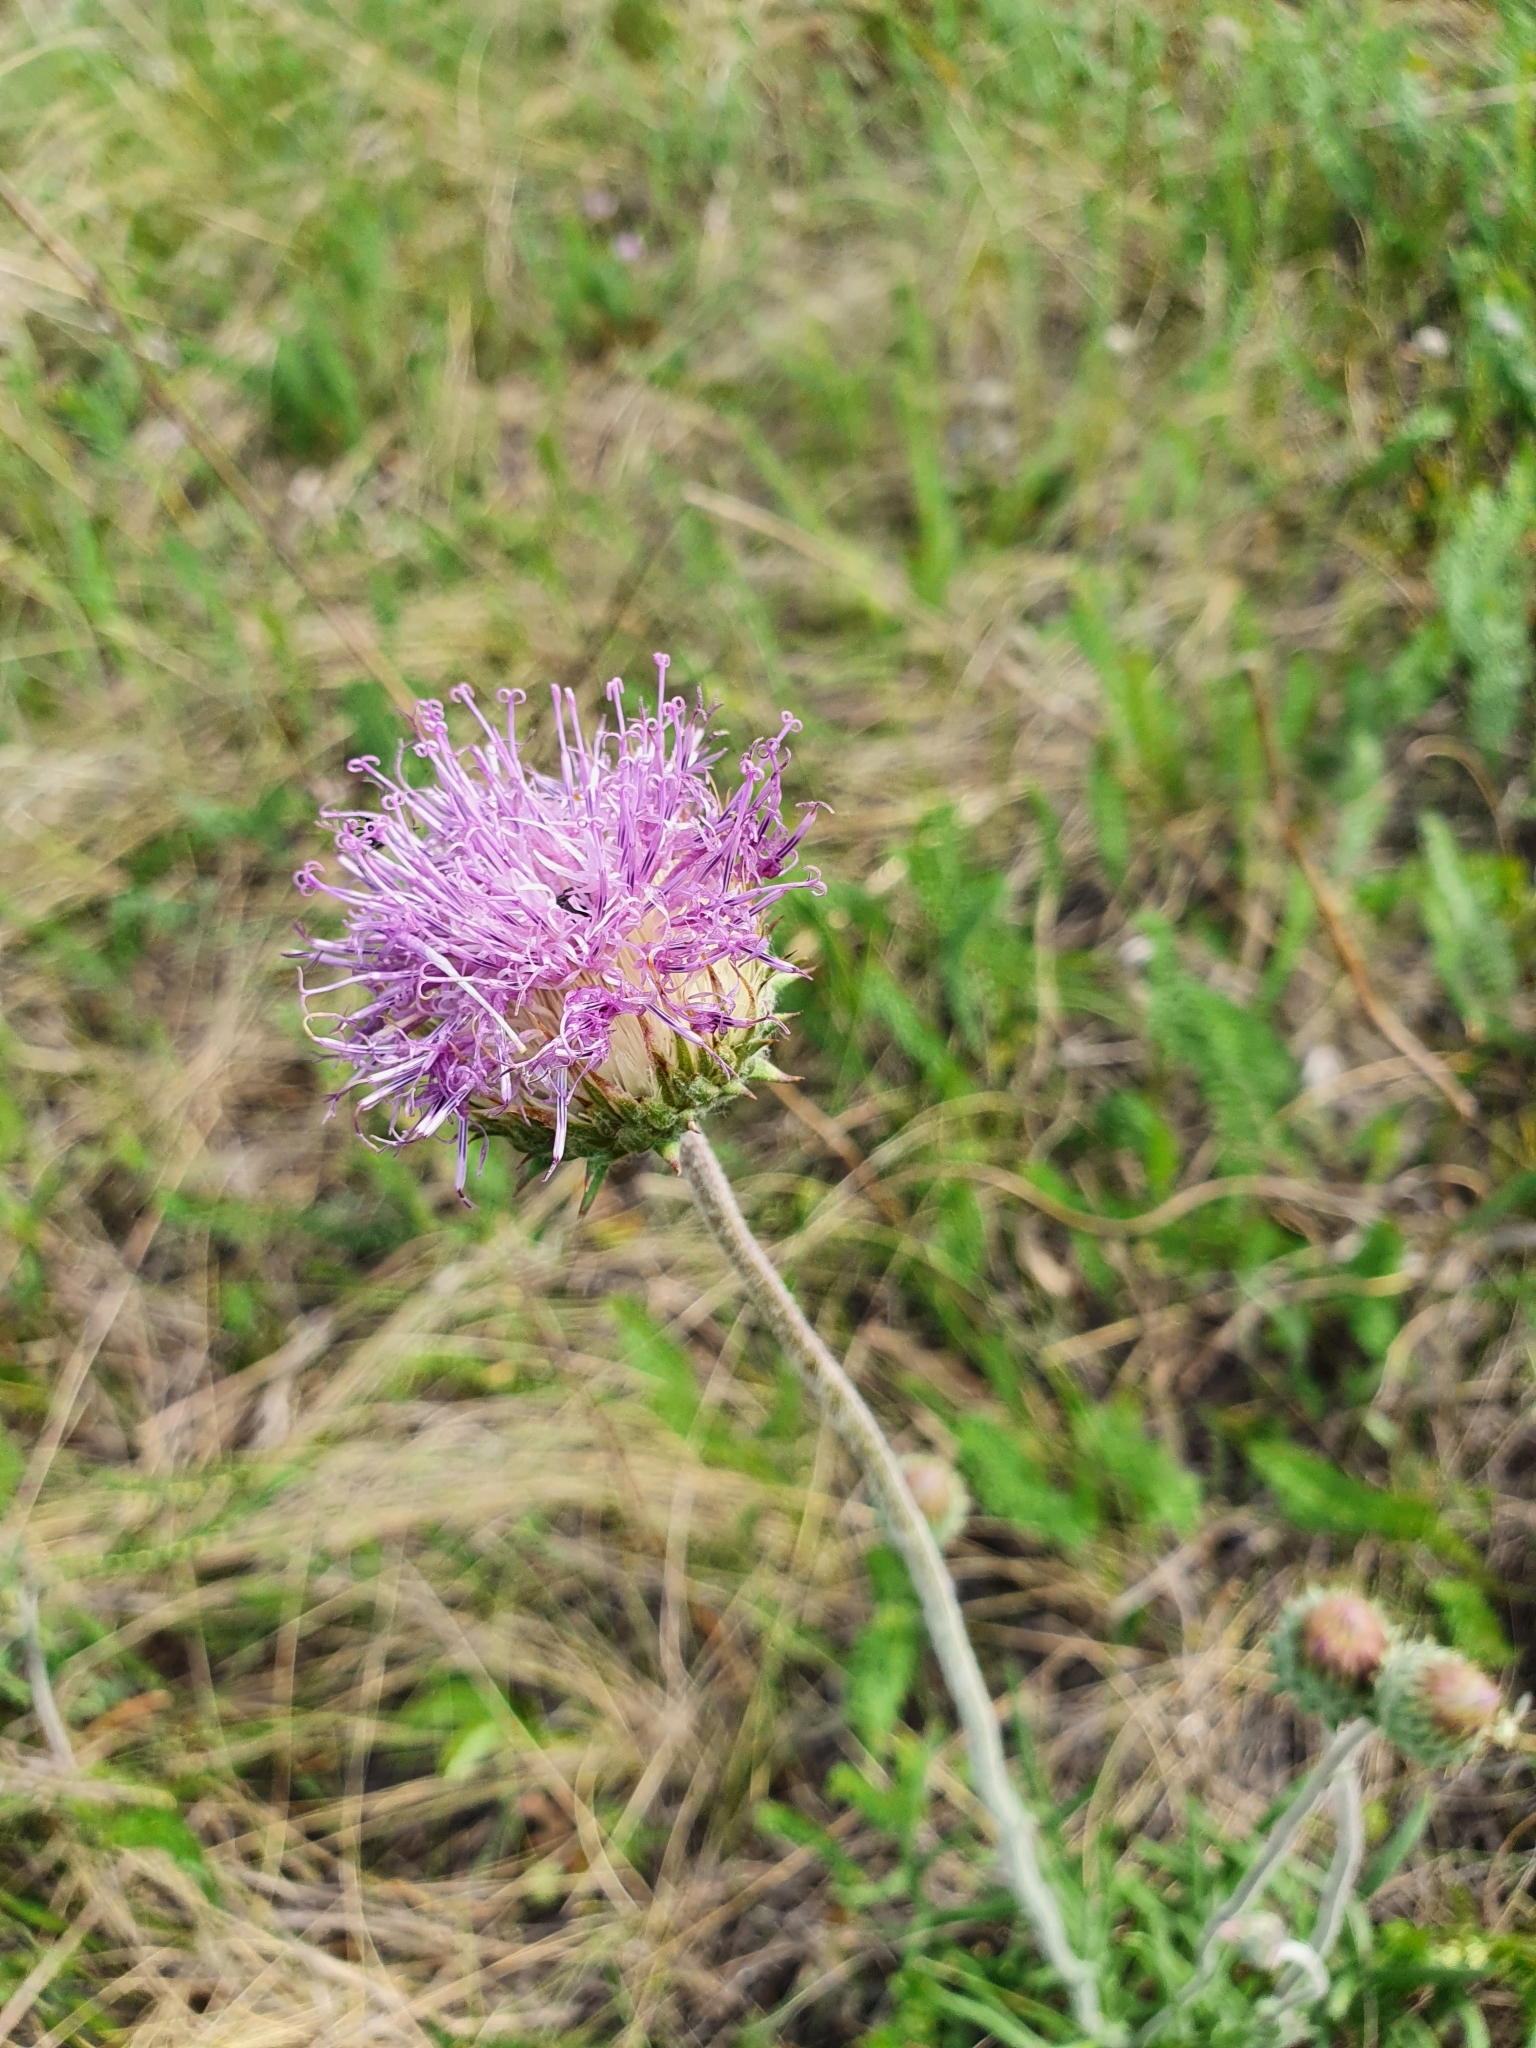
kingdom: Plantae
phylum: Tracheophyta
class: Magnoliopsida
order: Asterales
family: Asteraceae
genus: Jurinea
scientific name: Jurinea ledebourii
